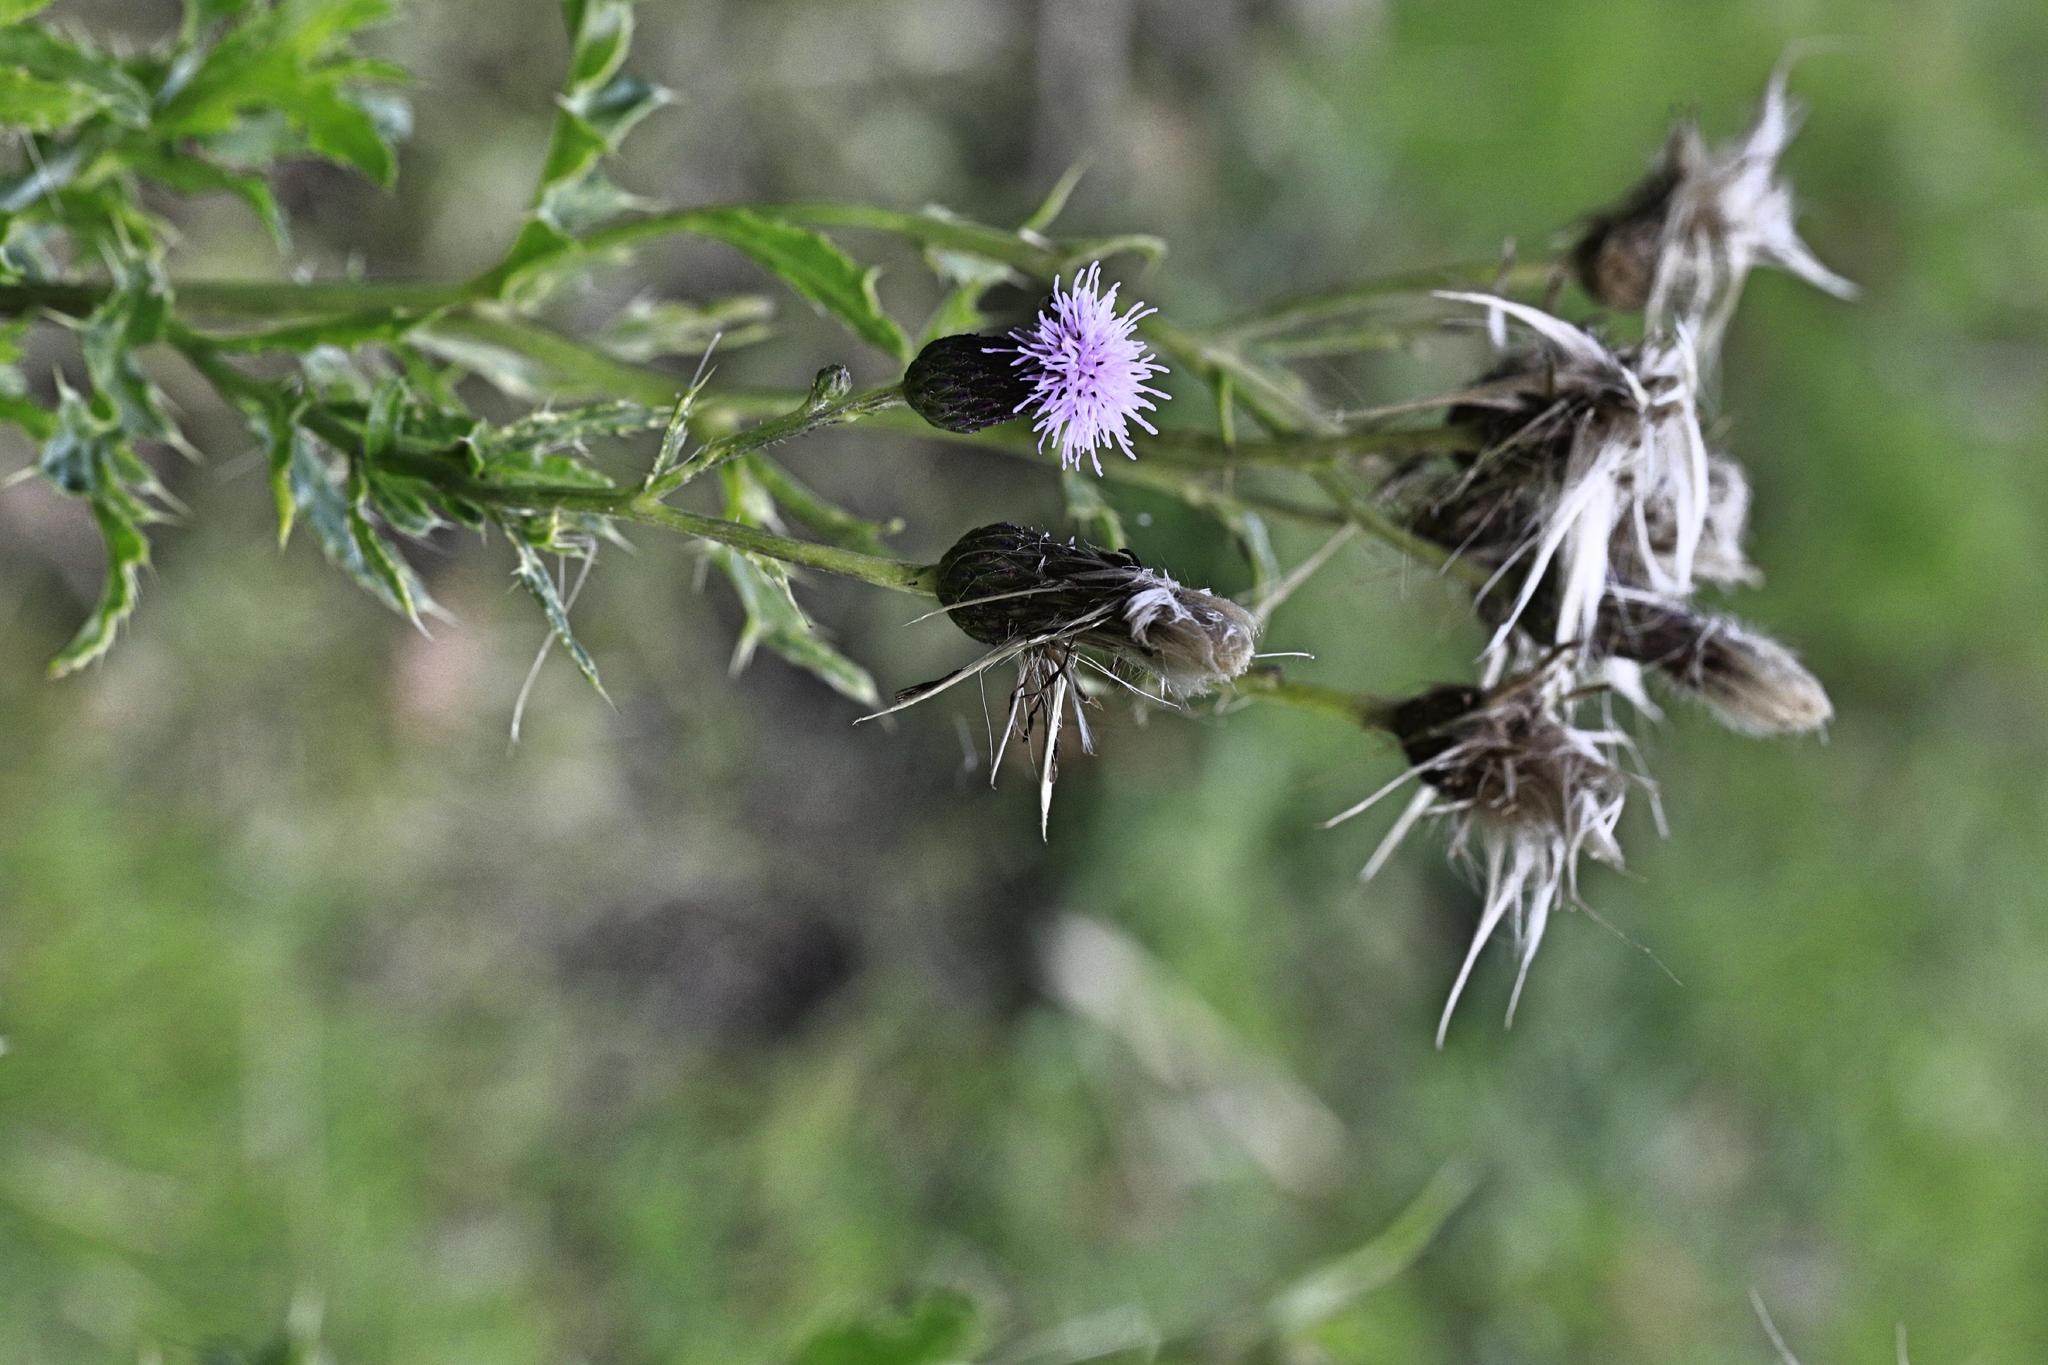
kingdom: Plantae
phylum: Tracheophyta
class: Magnoliopsida
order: Asterales
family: Asteraceae
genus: Cirsium
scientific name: Cirsium arvense
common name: Creeping thistle
